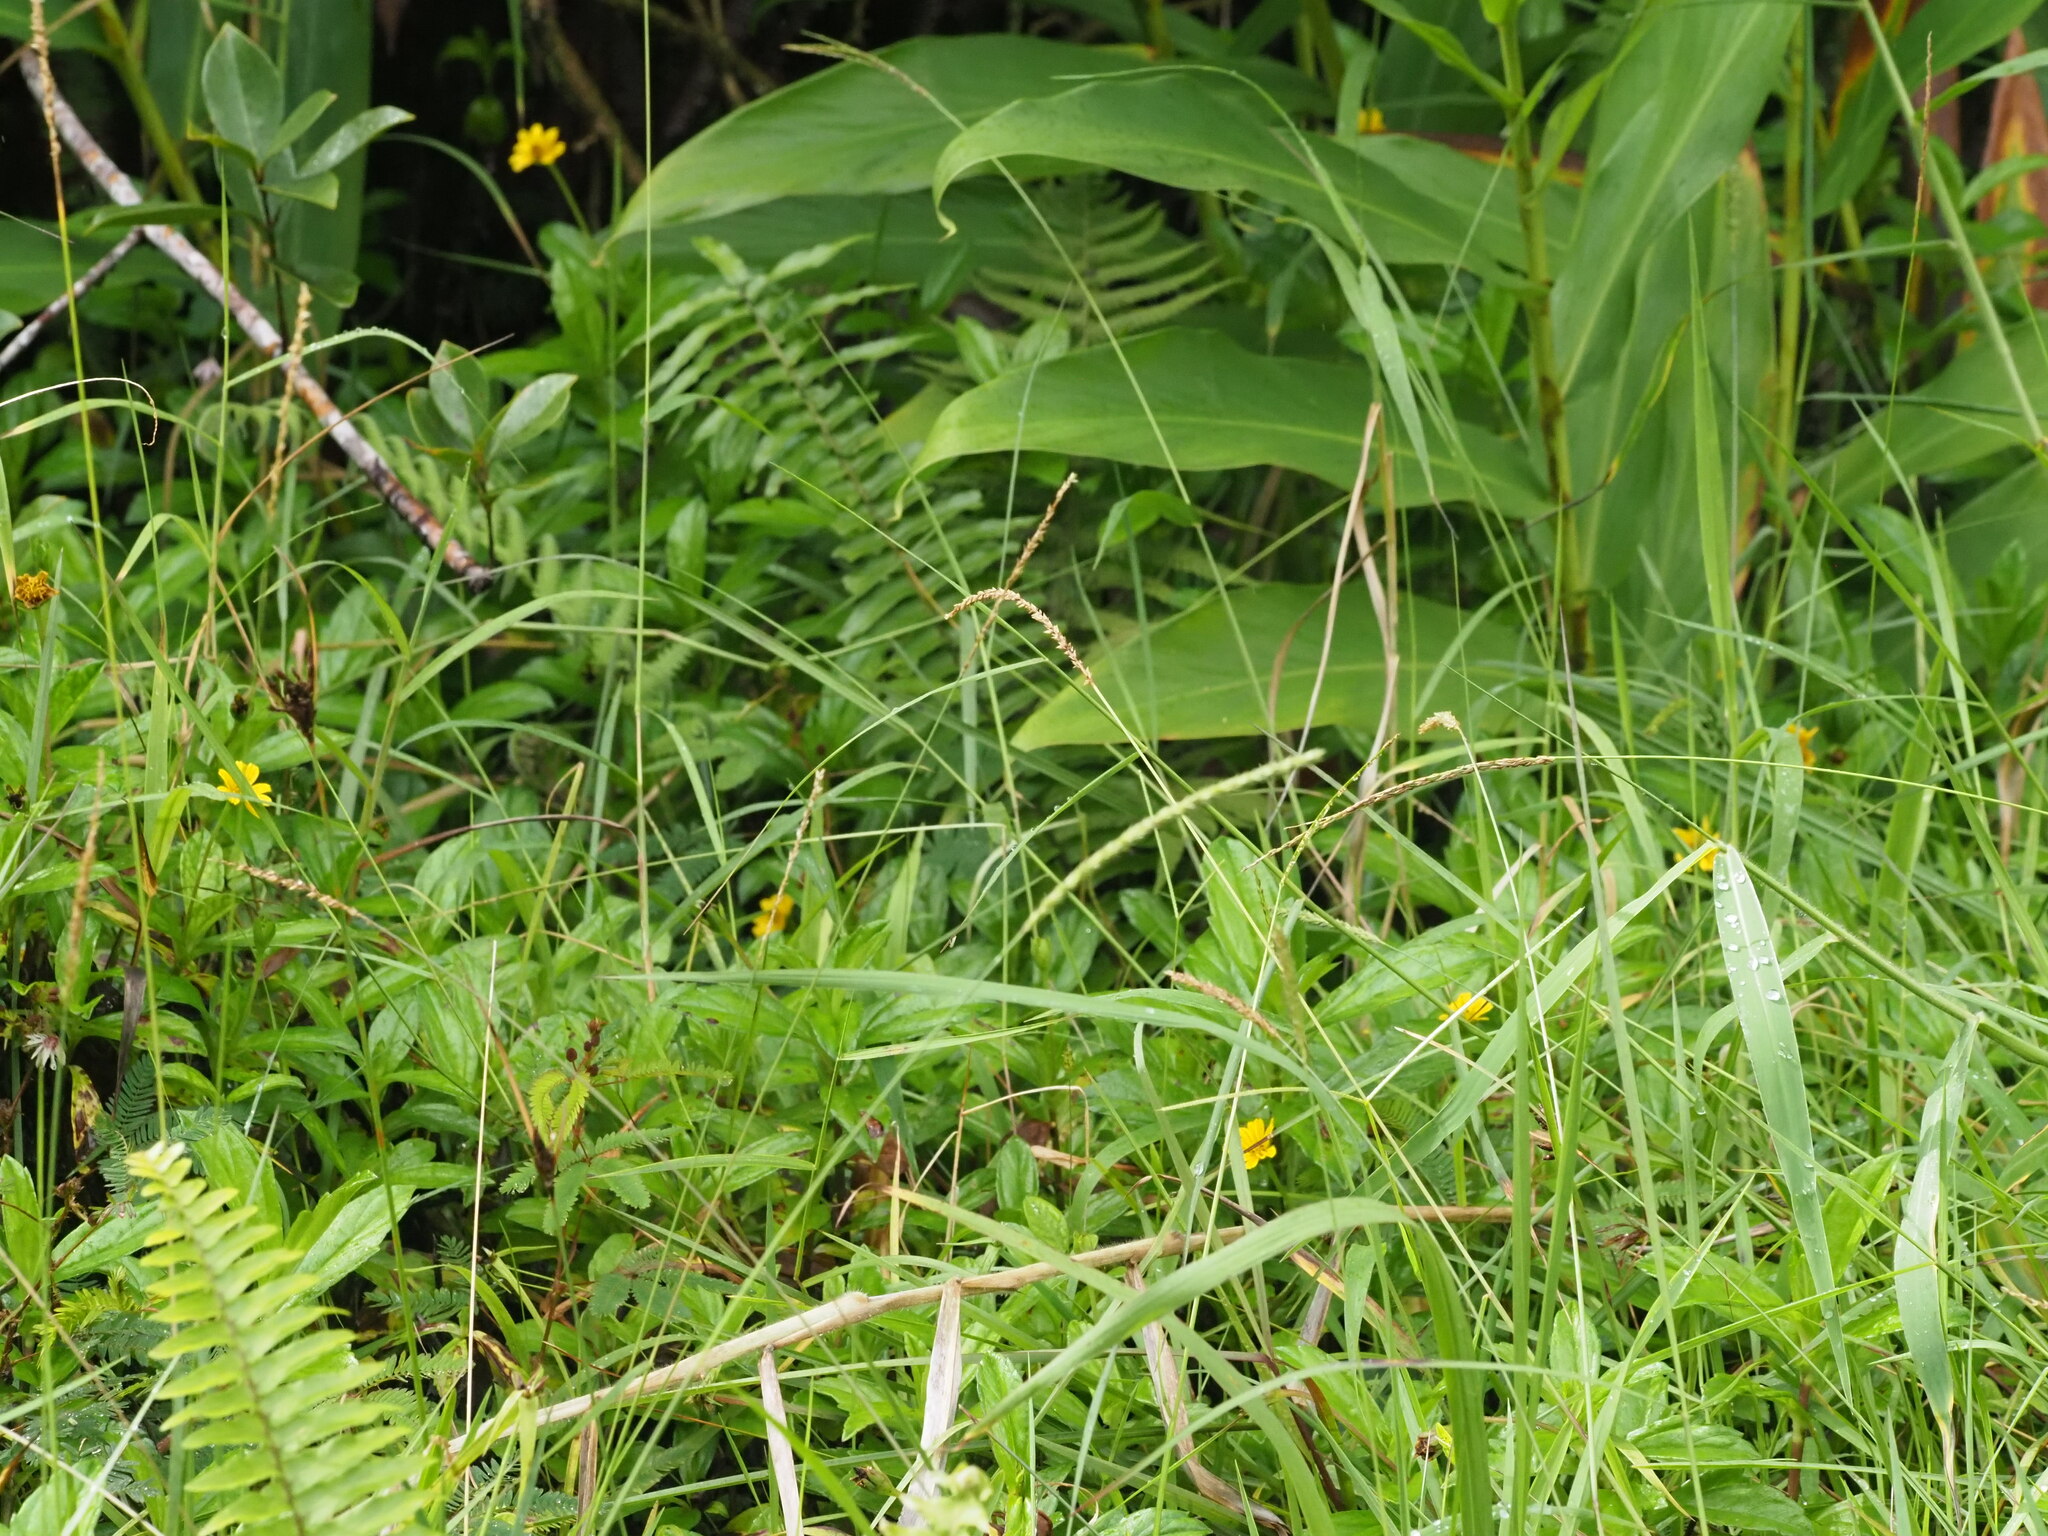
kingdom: Plantae
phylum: Tracheophyta
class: Liliopsida
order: Poales
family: Poaceae
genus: Digitaria
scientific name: Digitaria setigera
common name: East indian crabgrass
